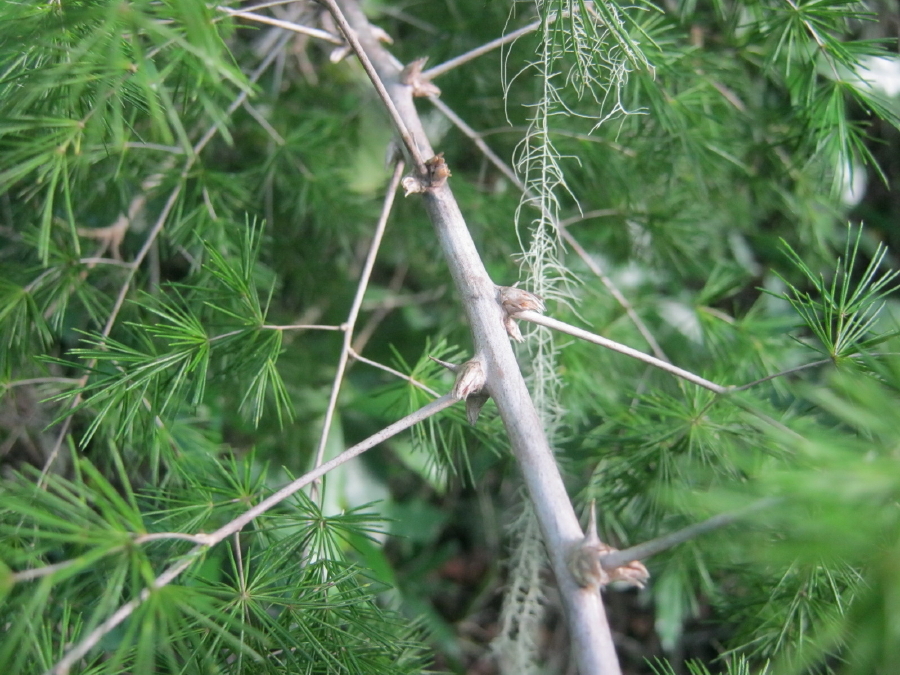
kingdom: Plantae
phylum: Tracheophyta
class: Liliopsida
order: Asparagales
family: Asparagaceae
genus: Asparagus
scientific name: Asparagus macowanii
